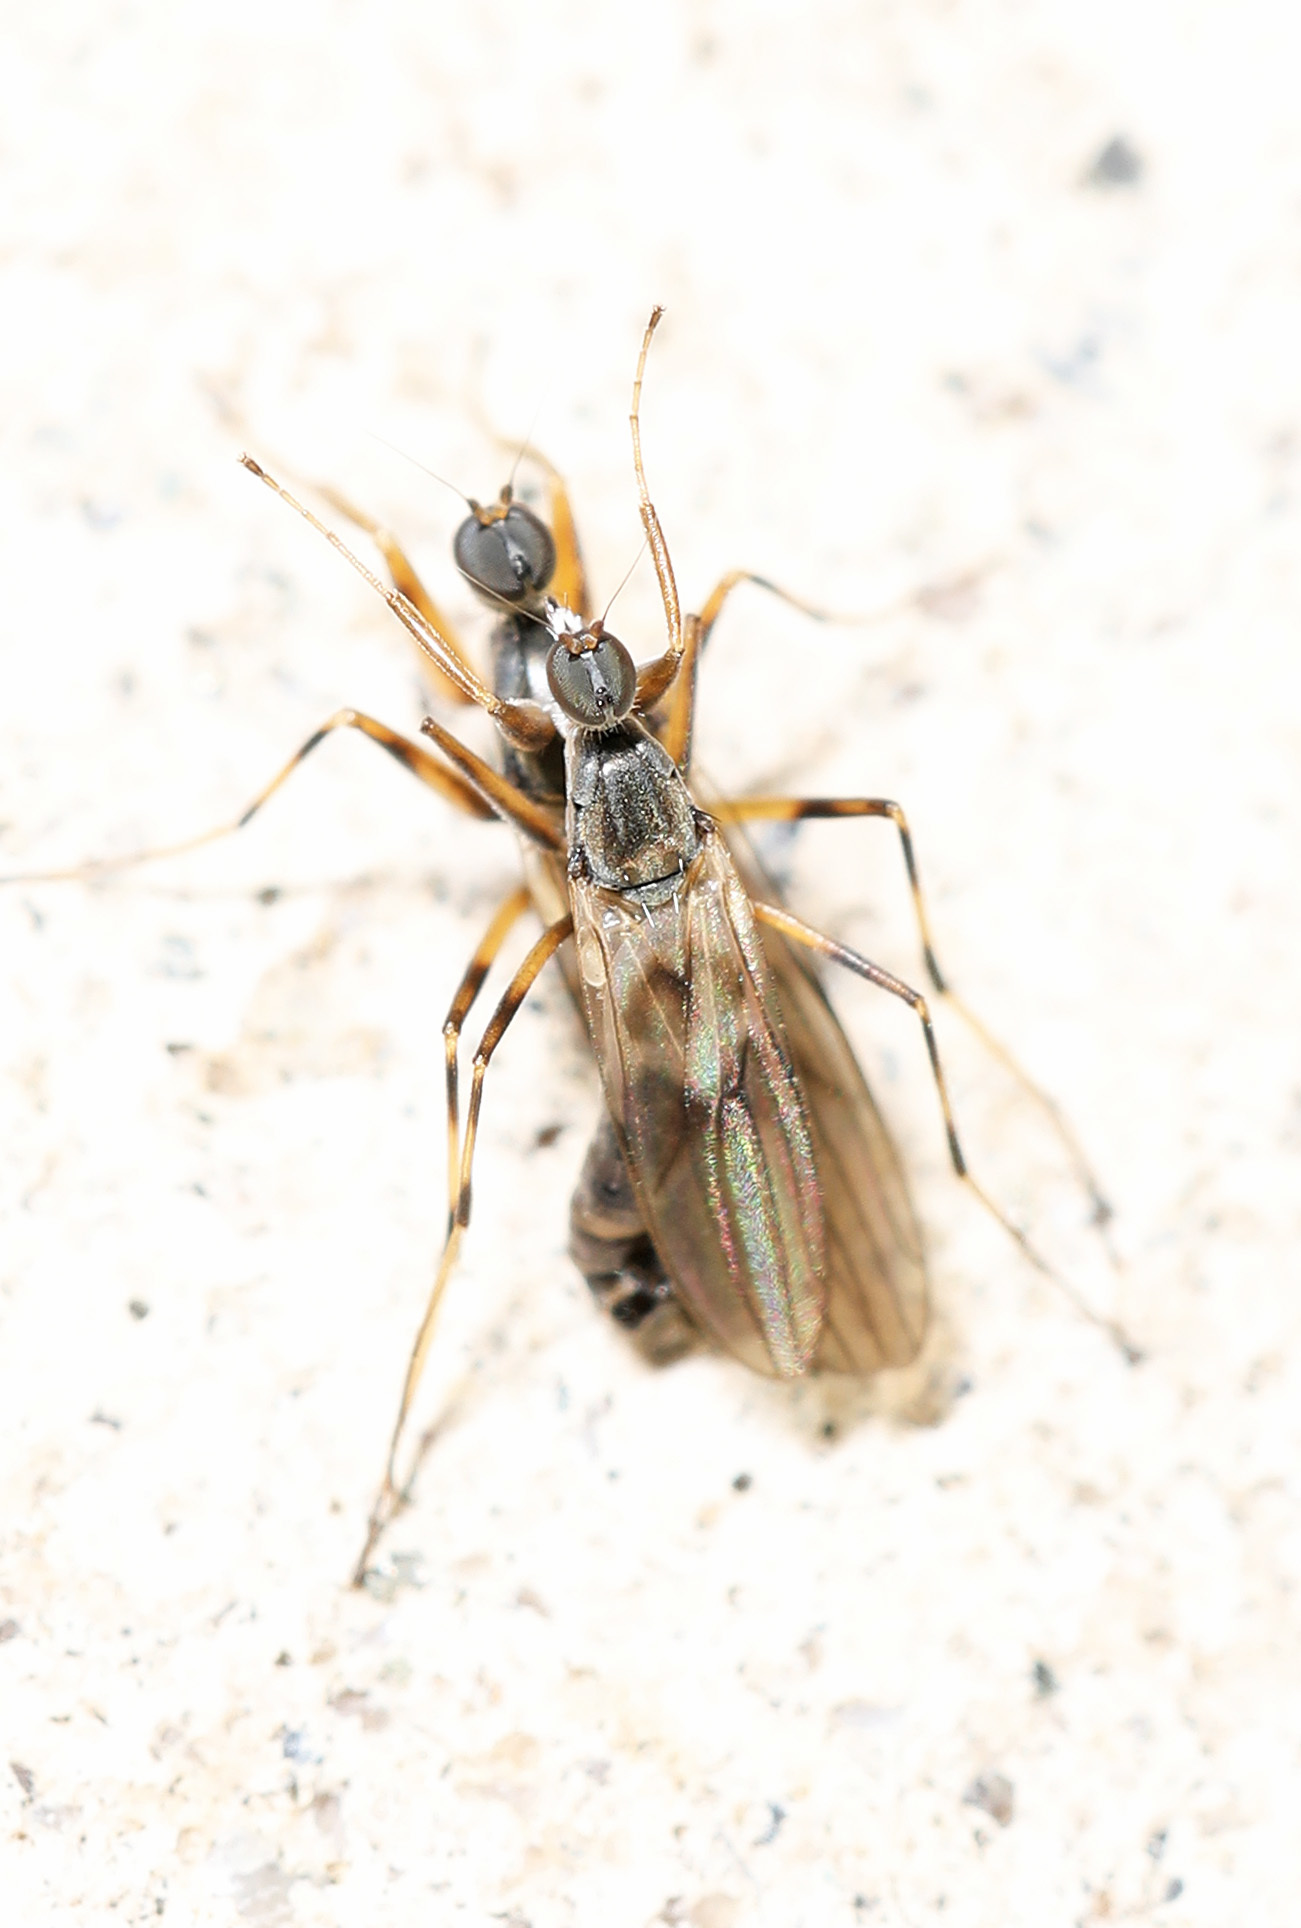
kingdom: Animalia
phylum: Arthropoda
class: Insecta
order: Diptera
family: Hybotidae
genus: Tachypeza
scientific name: Tachypeza inusta
